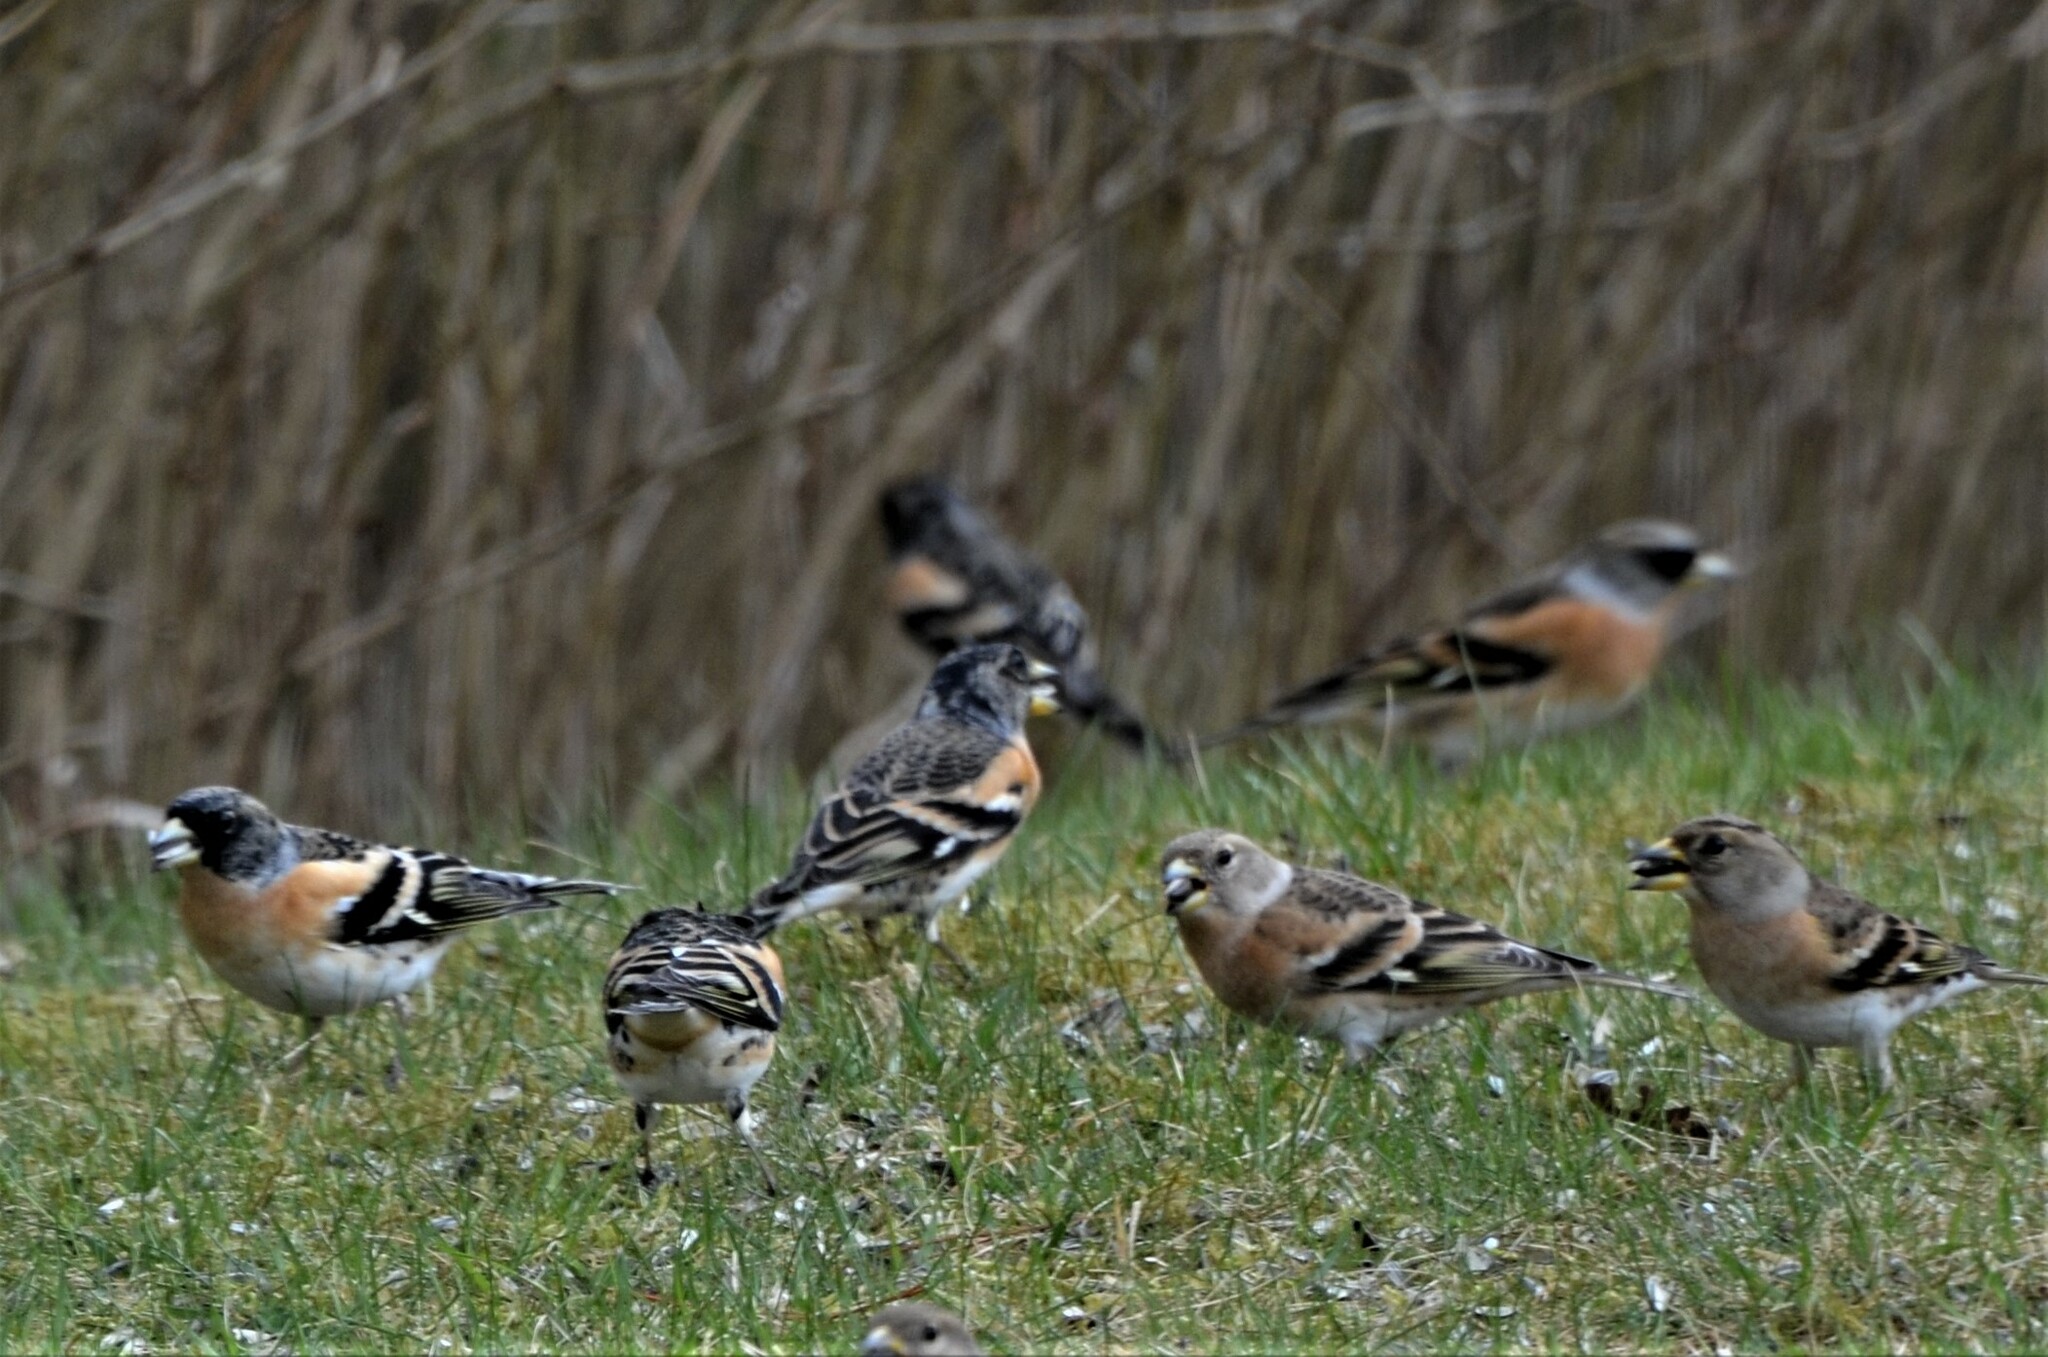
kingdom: Animalia
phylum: Chordata
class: Aves
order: Passeriformes
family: Fringillidae
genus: Fringilla
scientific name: Fringilla montifringilla
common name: Brambling
